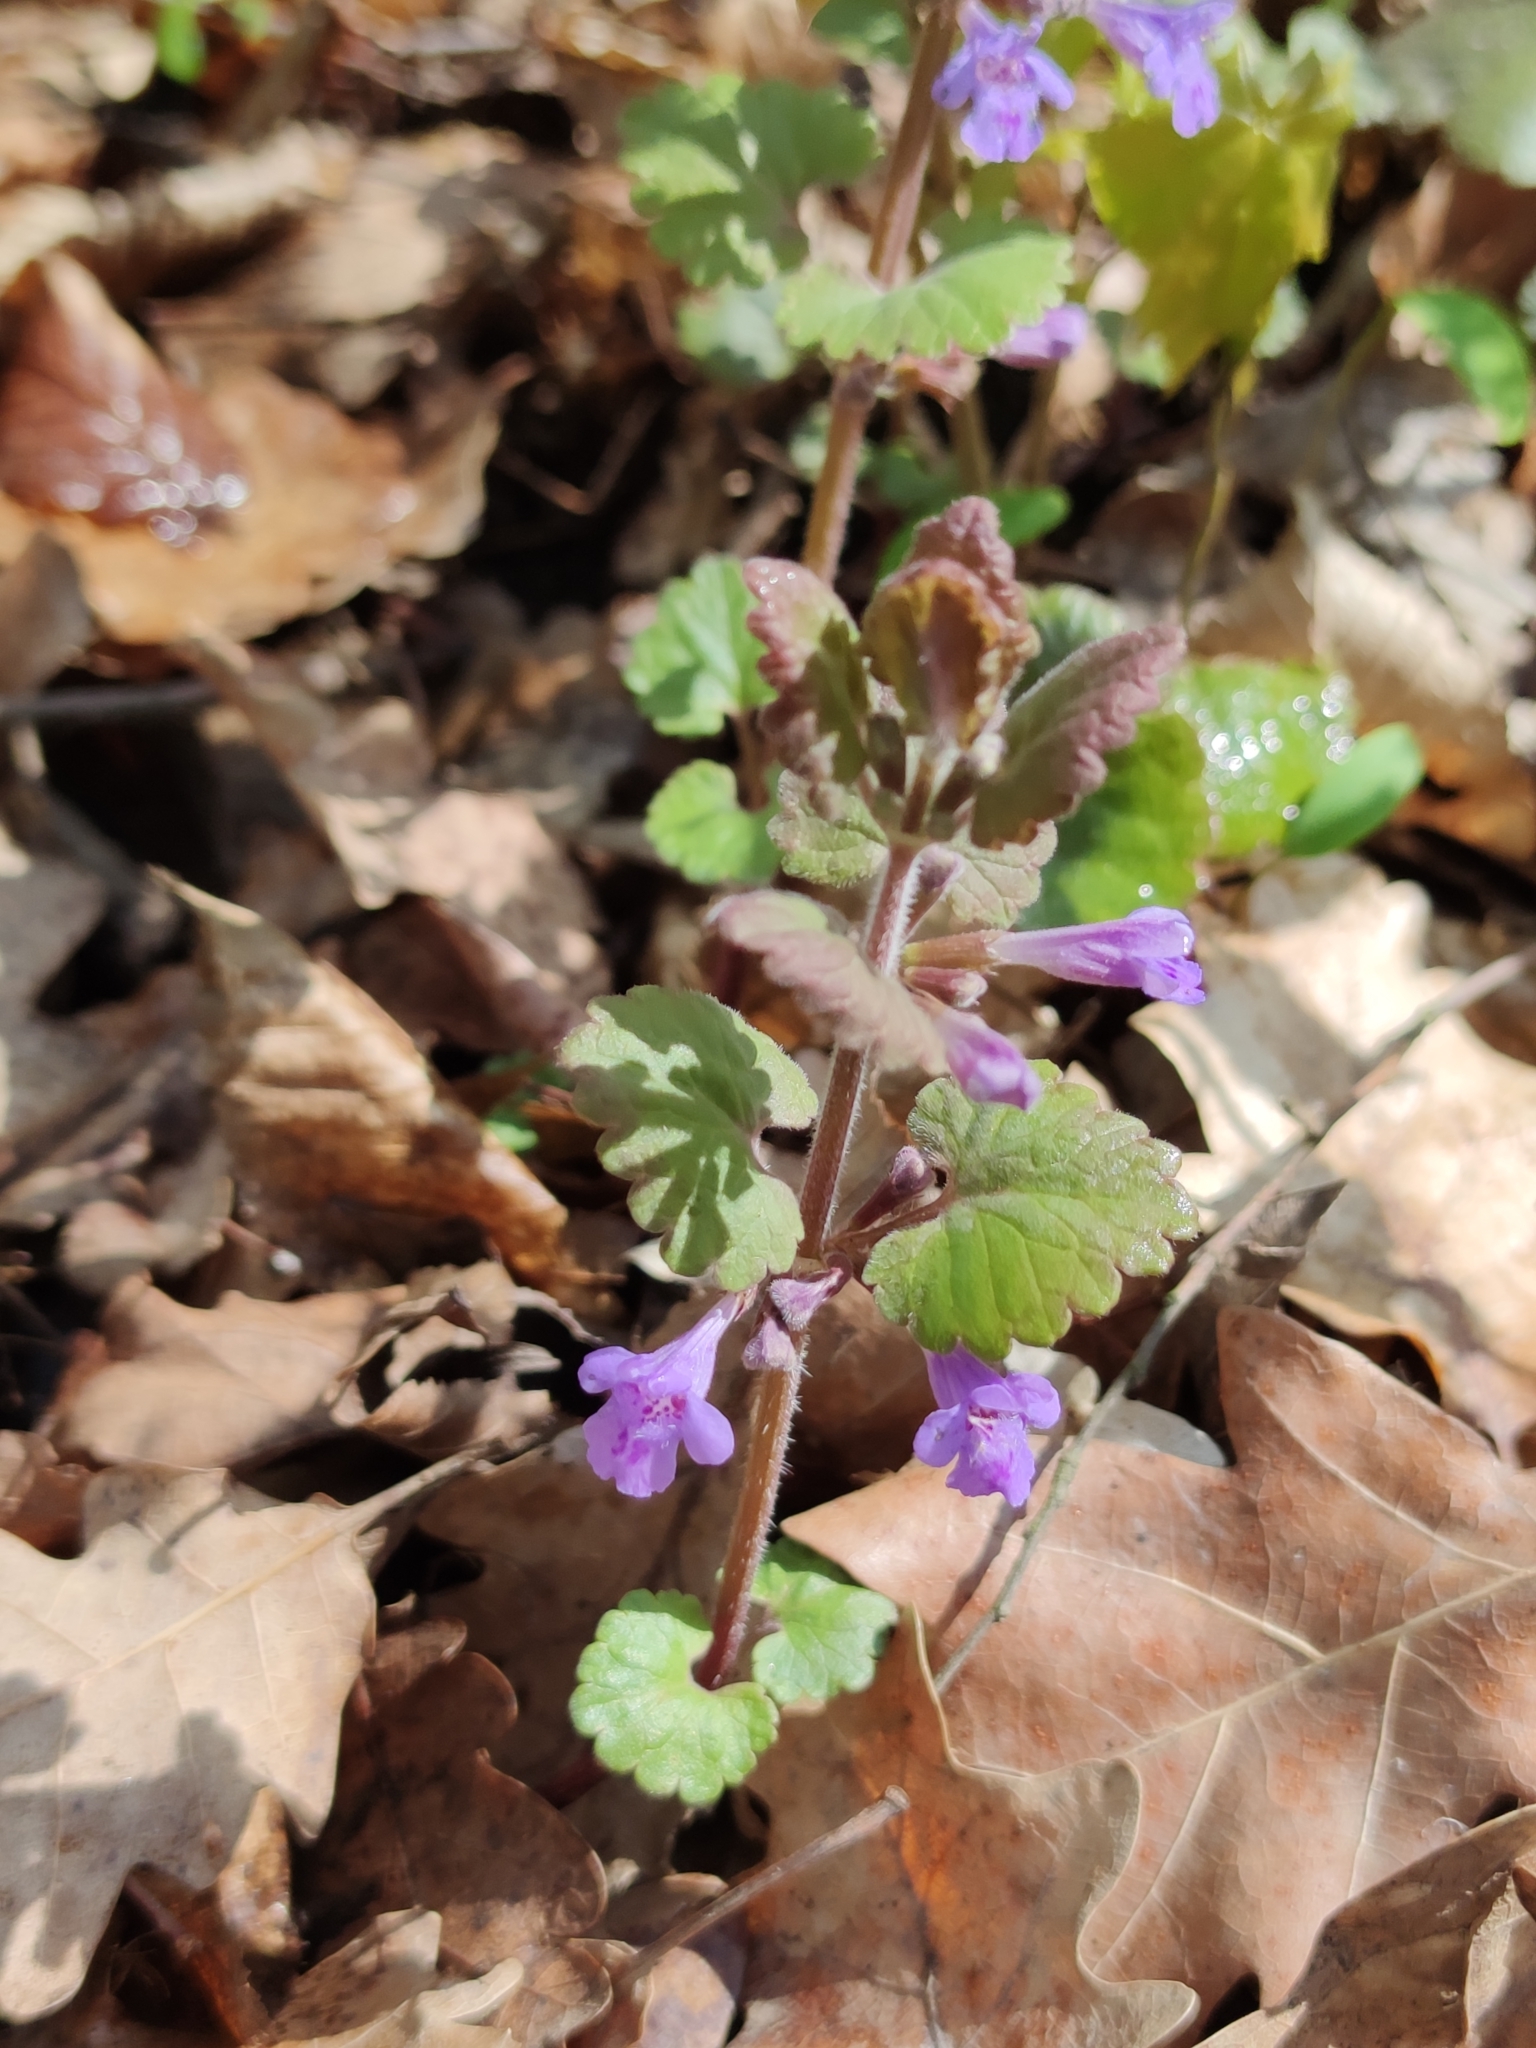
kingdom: Plantae
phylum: Tracheophyta
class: Magnoliopsida
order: Lamiales
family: Lamiaceae
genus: Glechoma
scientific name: Glechoma hederacea
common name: Ground ivy
